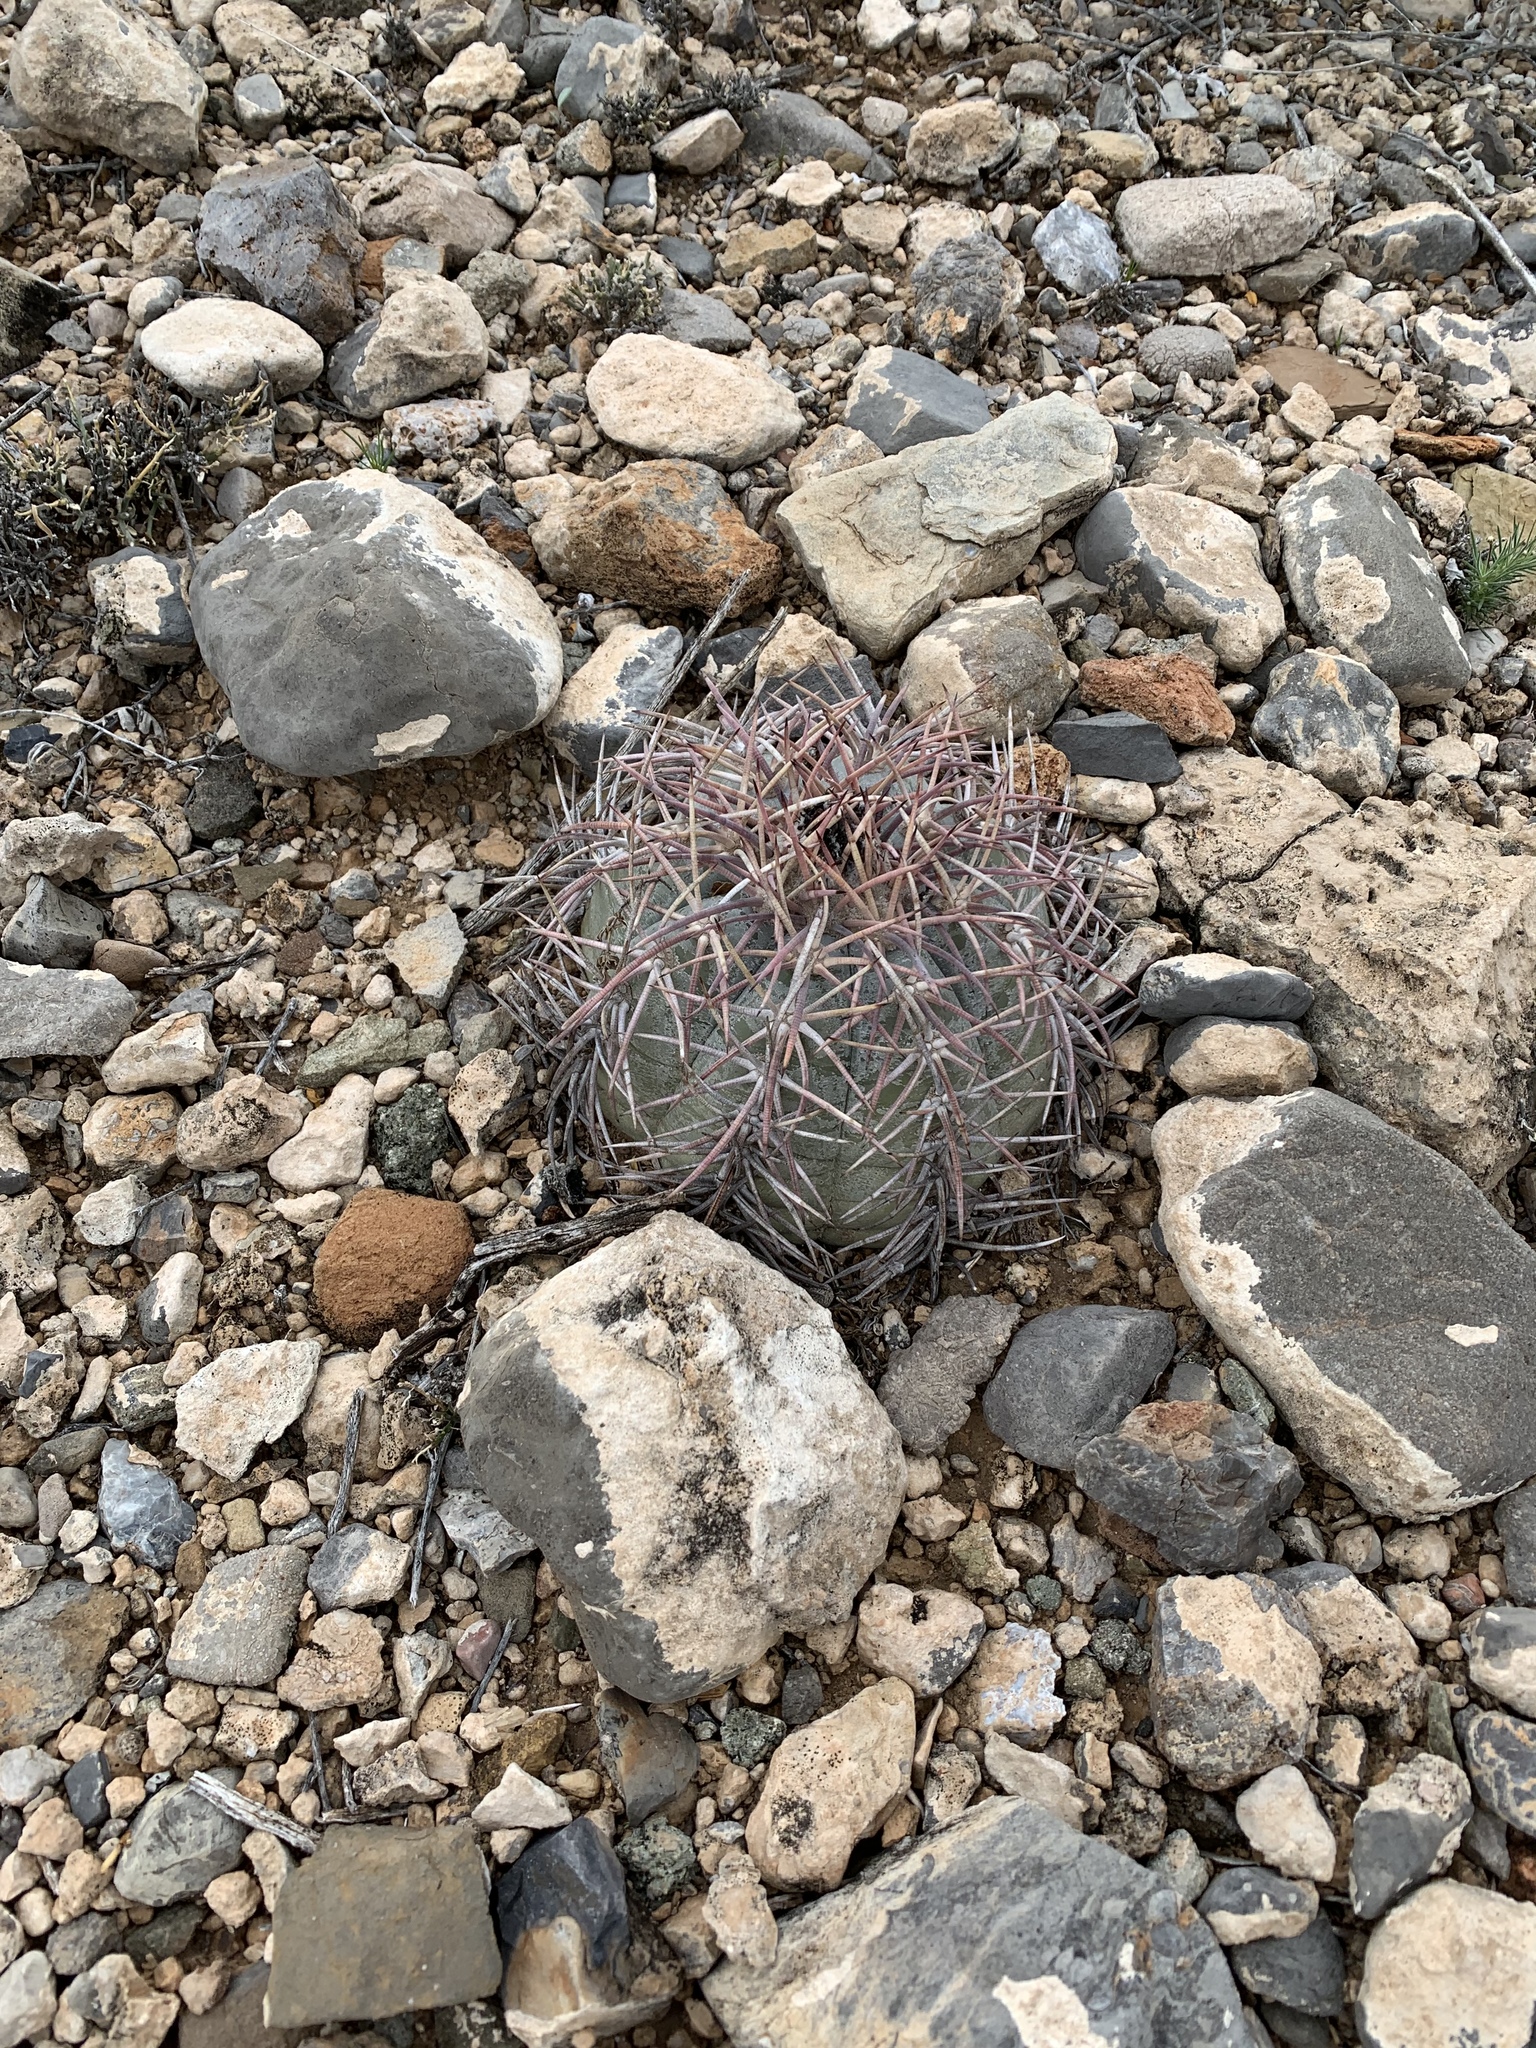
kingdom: Plantae
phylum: Tracheophyta
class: Magnoliopsida
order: Caryophyllales
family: Cactaceae
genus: Echinocactus
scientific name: Echinocactus horizonthalonius
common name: Devilshead
